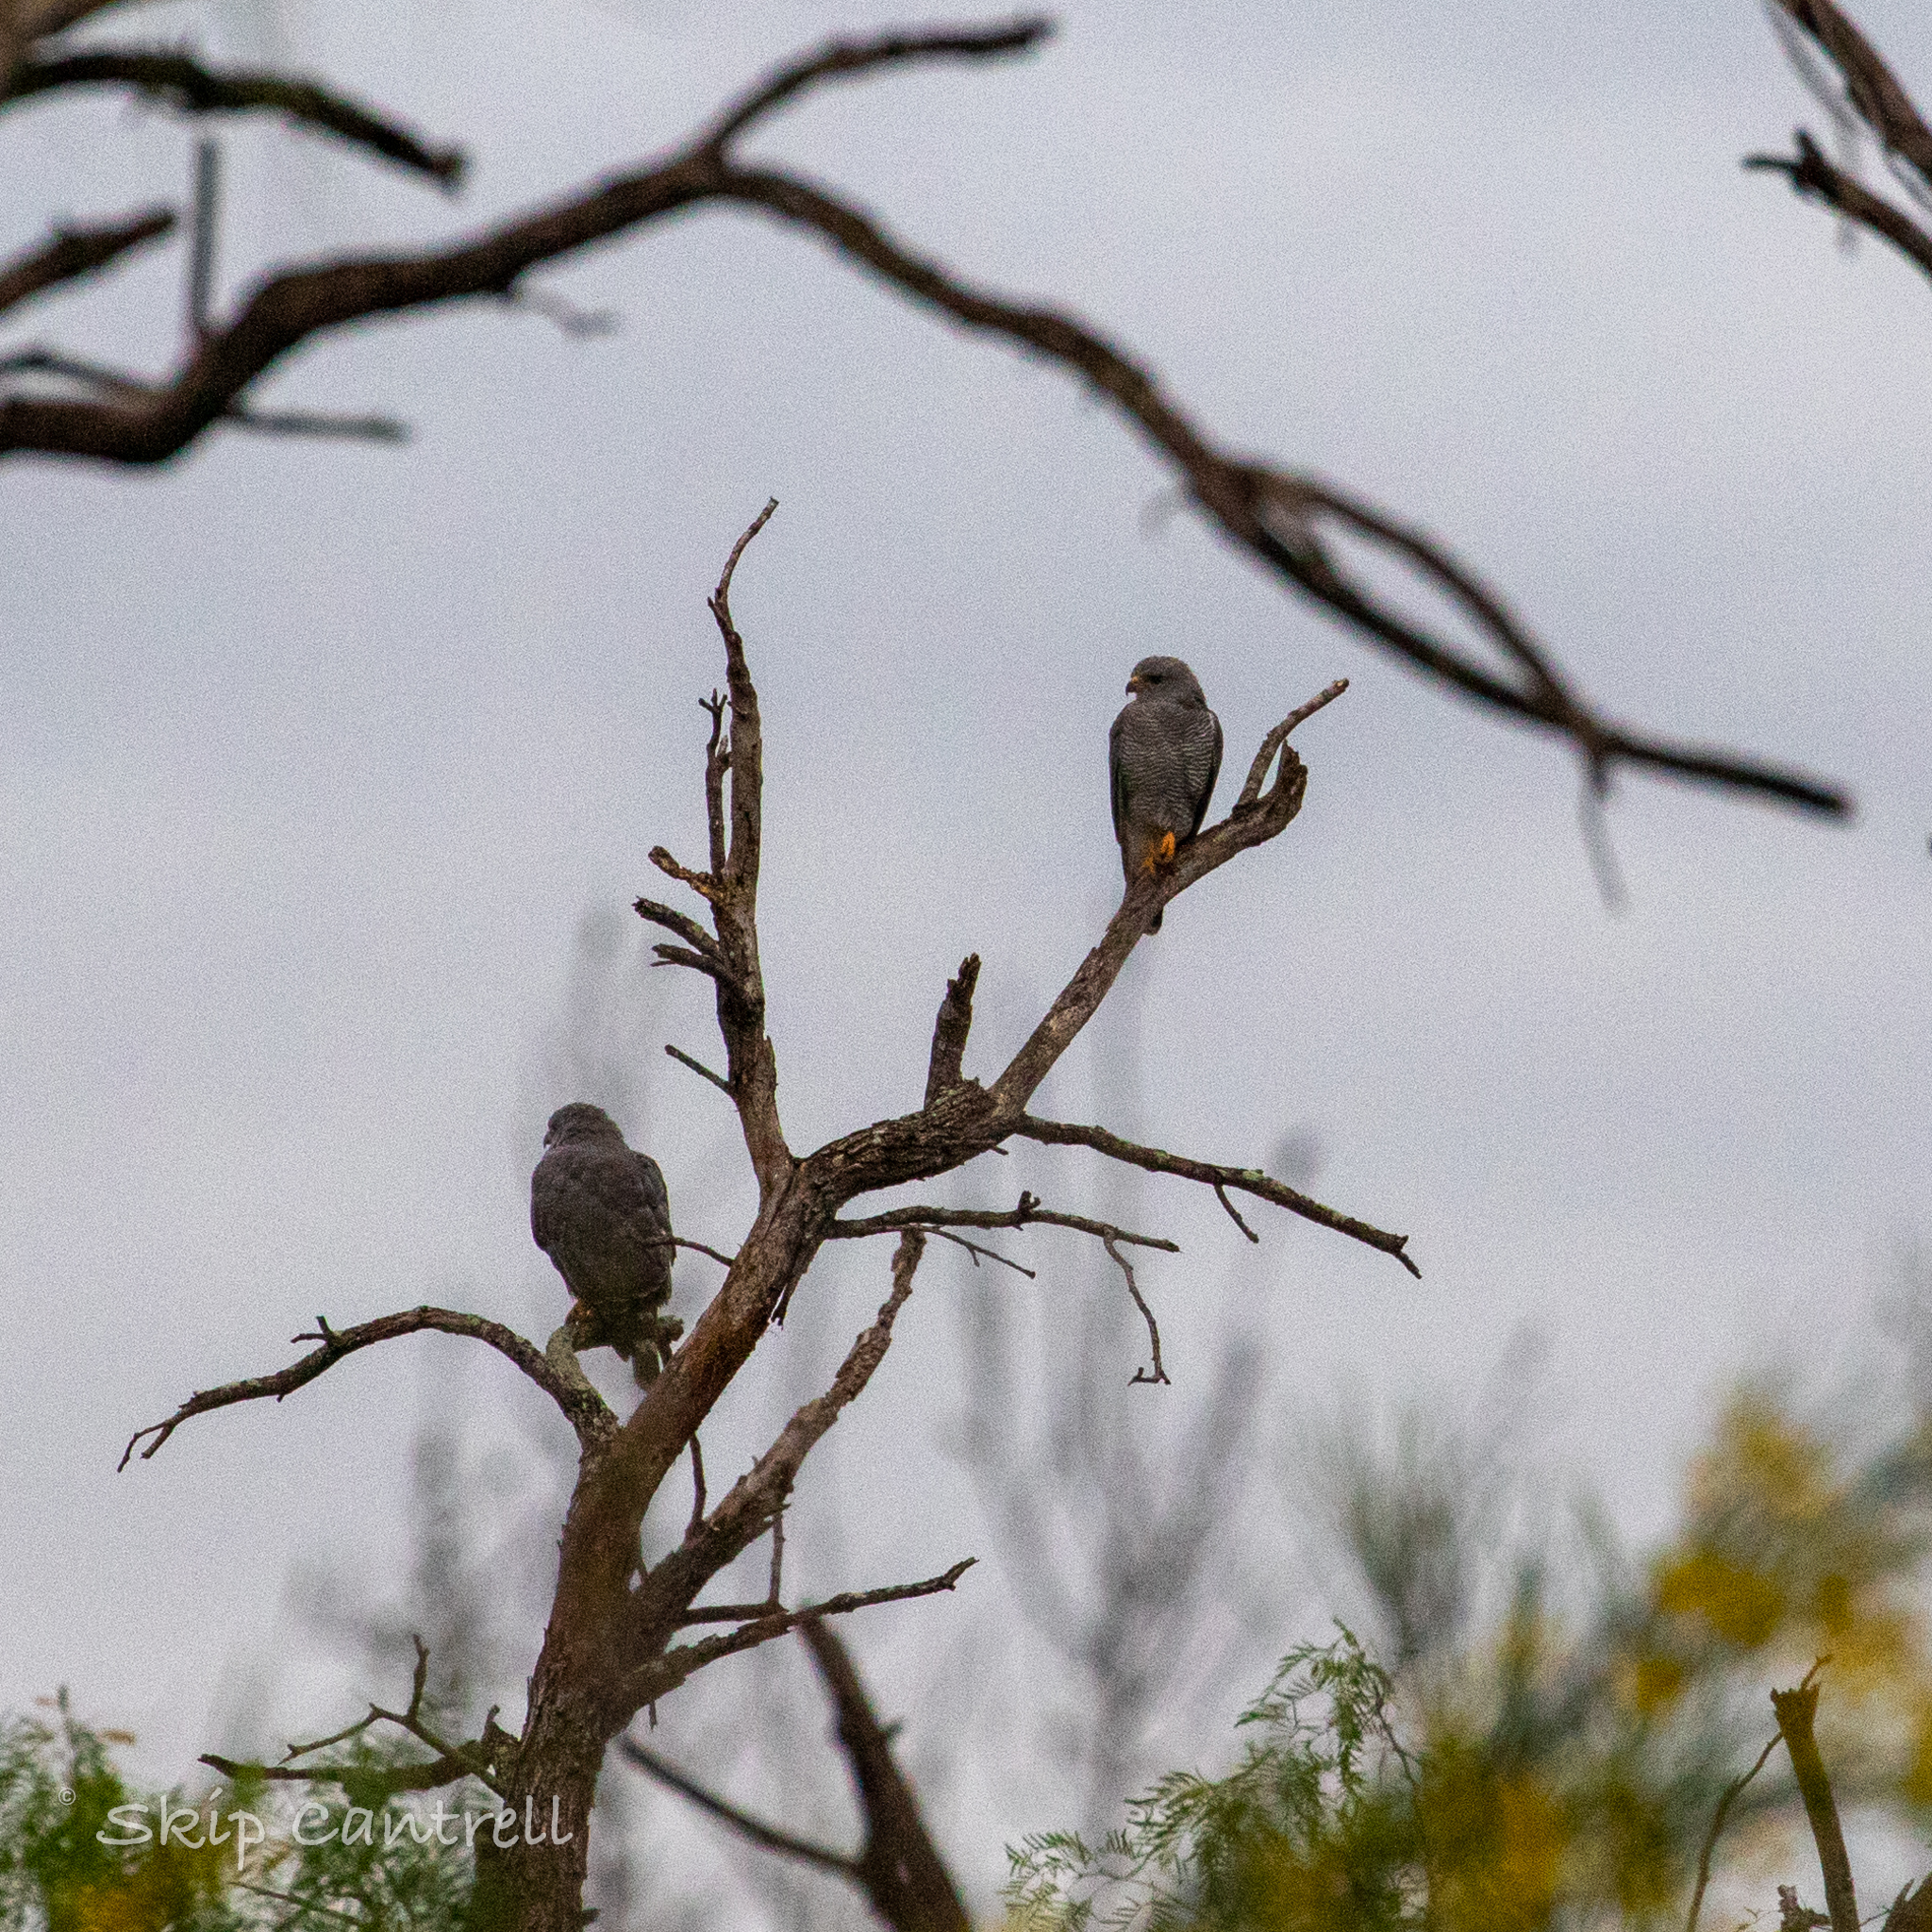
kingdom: Animalia
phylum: Chordata
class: Aves
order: Accipitriformes
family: Accipitridae
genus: Buteo
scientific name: Buteo nitidus
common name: Grey-lined hawk
